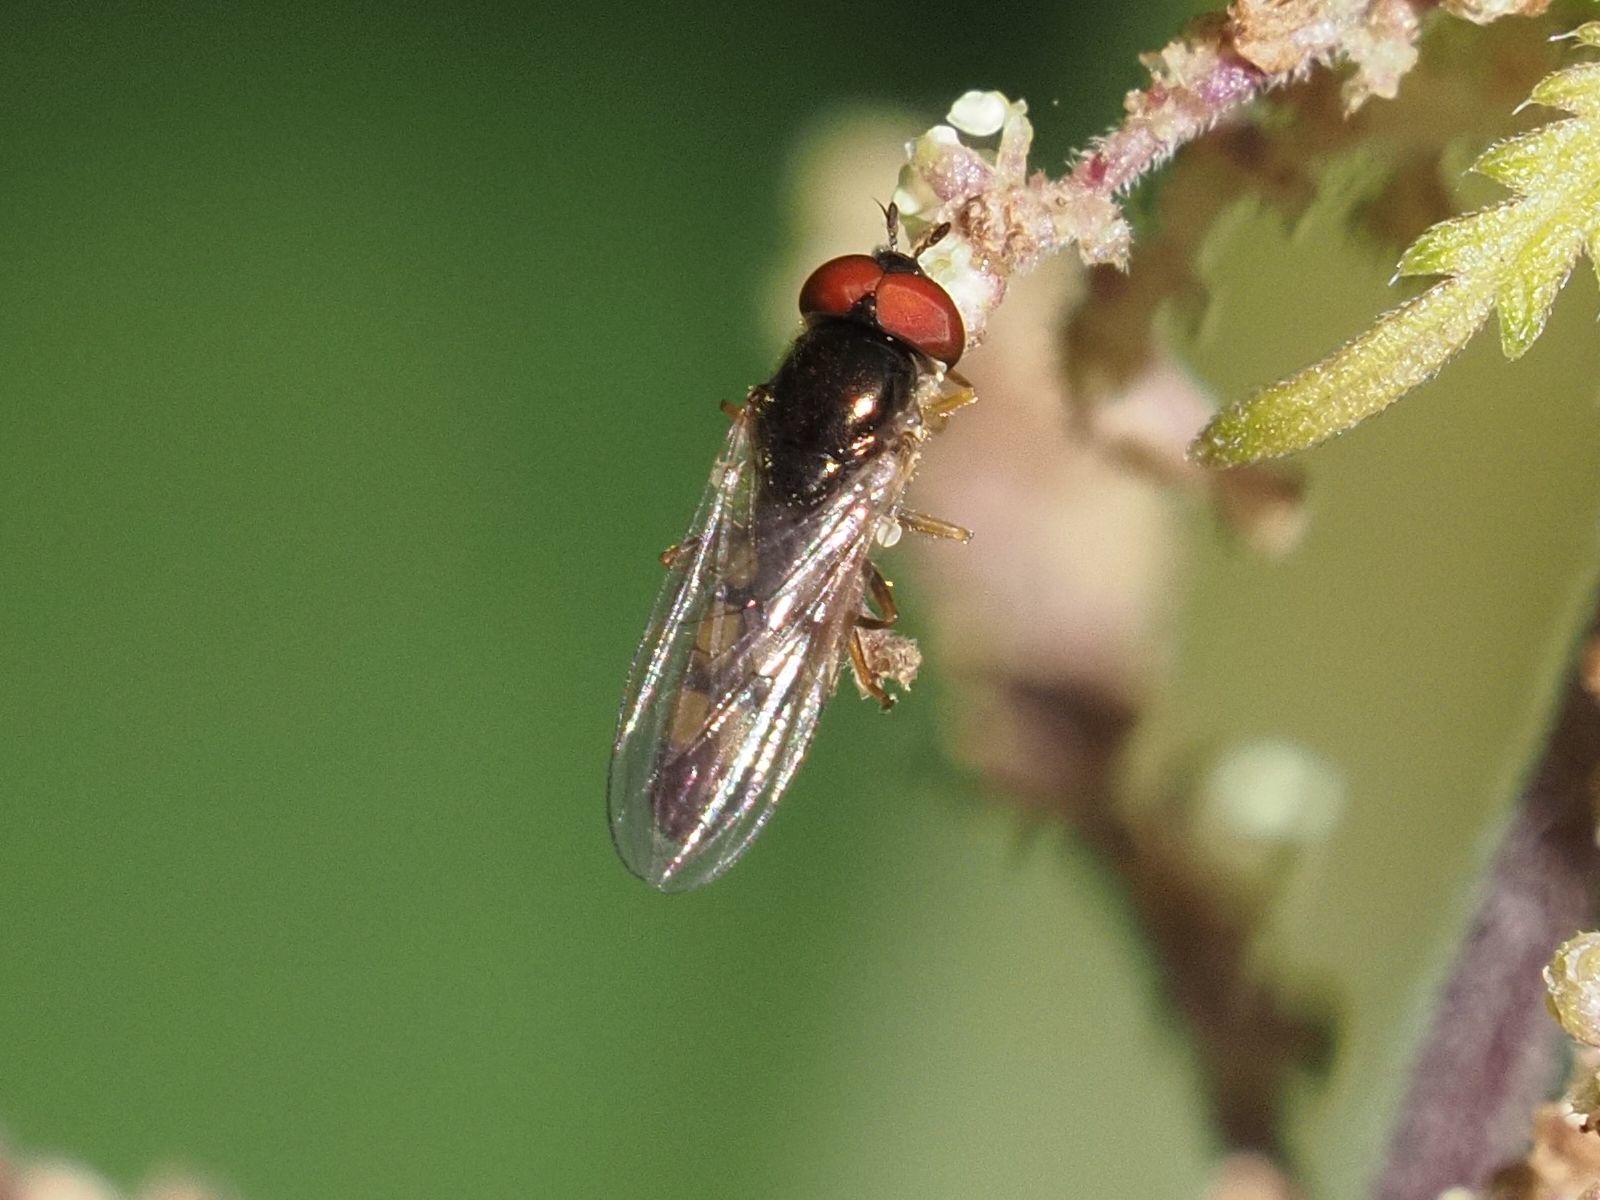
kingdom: Animalia
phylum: Arthropoda
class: Insecta
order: Diptera
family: Syrphidae
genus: Melanostoma
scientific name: Melanostoma mellina
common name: Hover fly
